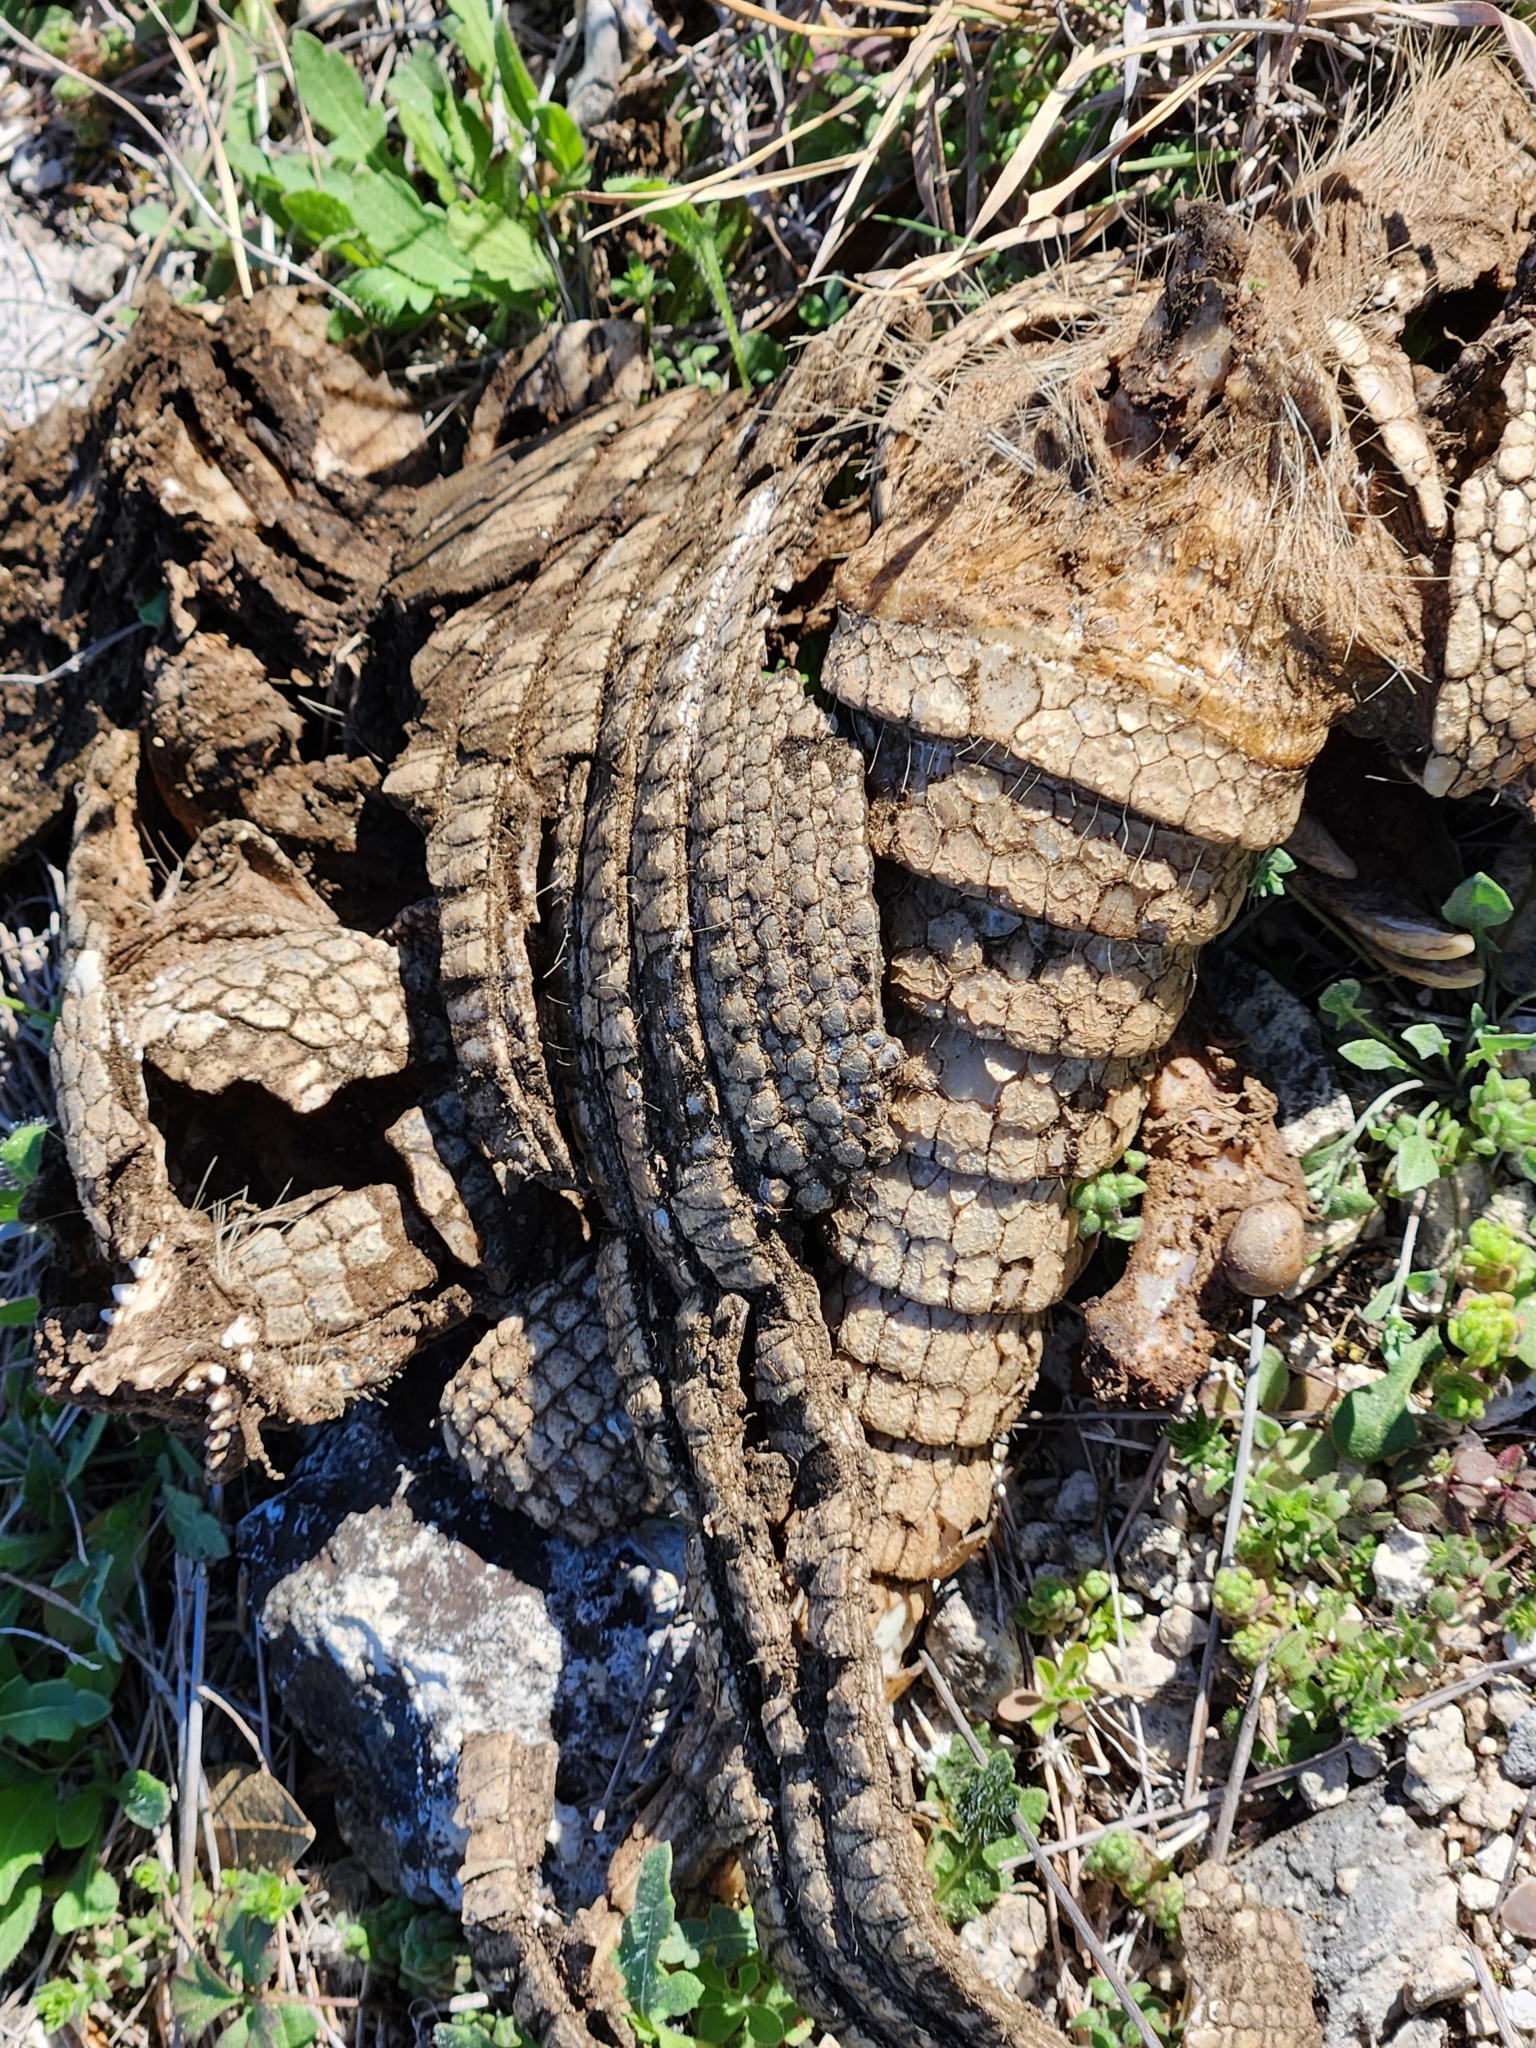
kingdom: Animalia
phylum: Chordata
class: Mammalia
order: Cingulata
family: Dasypodidae
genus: Dasypus
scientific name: Dasypus novemcinctus
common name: Nine-banded armadillo
